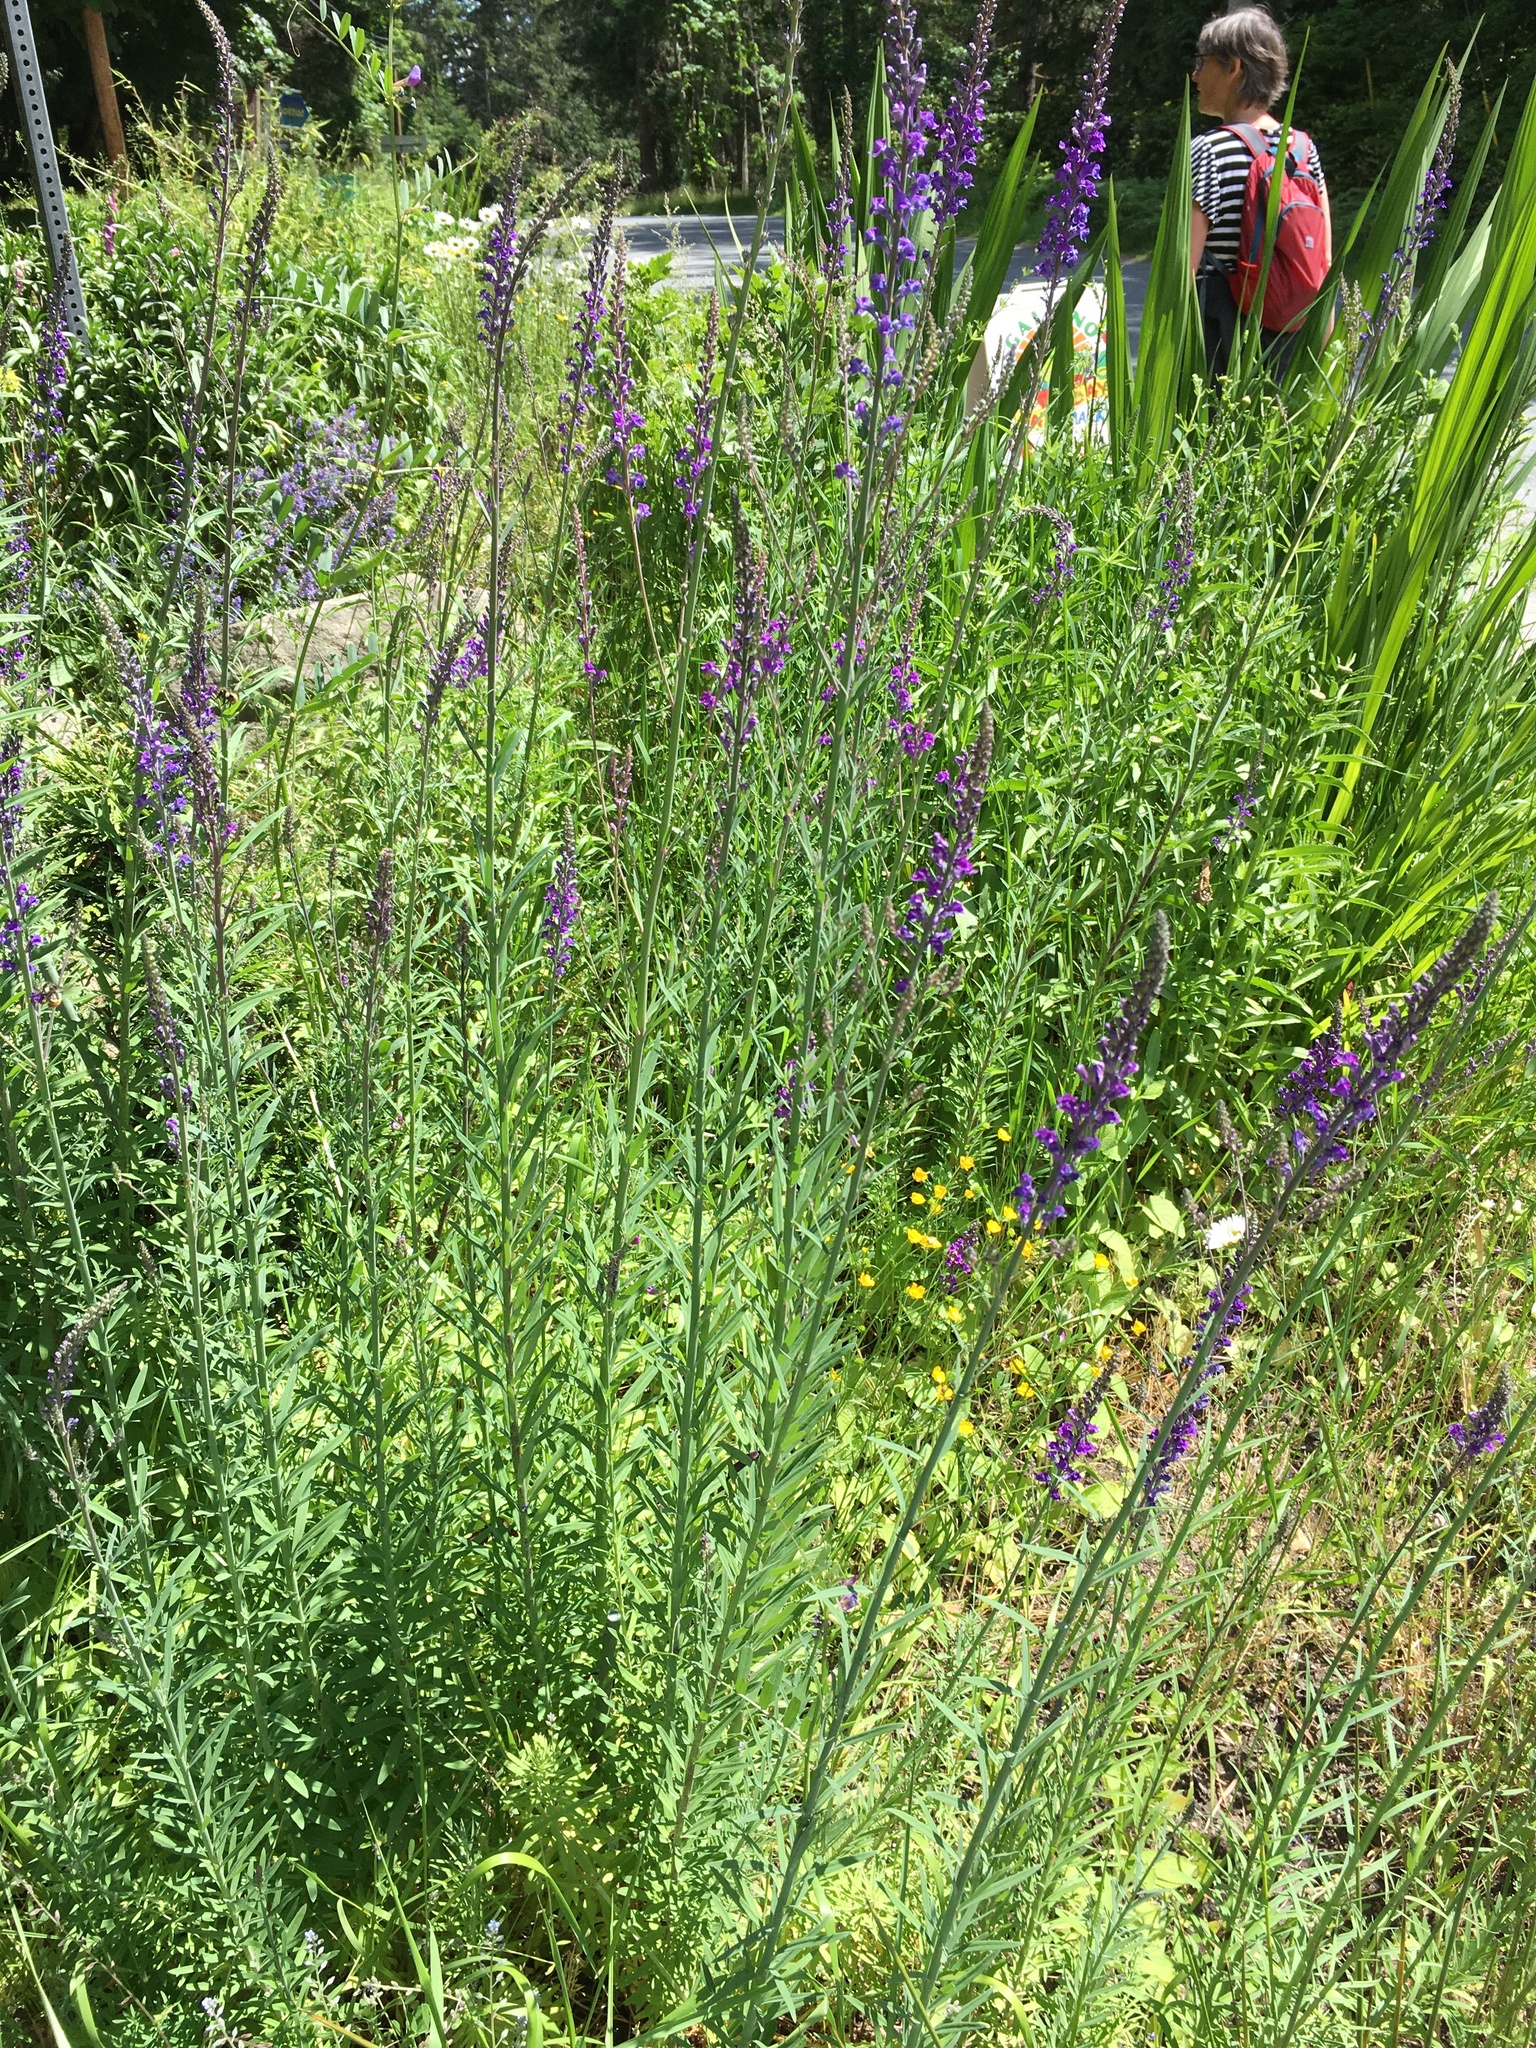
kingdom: Plantae
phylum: Tracheophyta
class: Magnoliopsida
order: Lamiales
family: Plantaginaceae
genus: Linaria
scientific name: Linaria purpurea
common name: Purple toadflax
